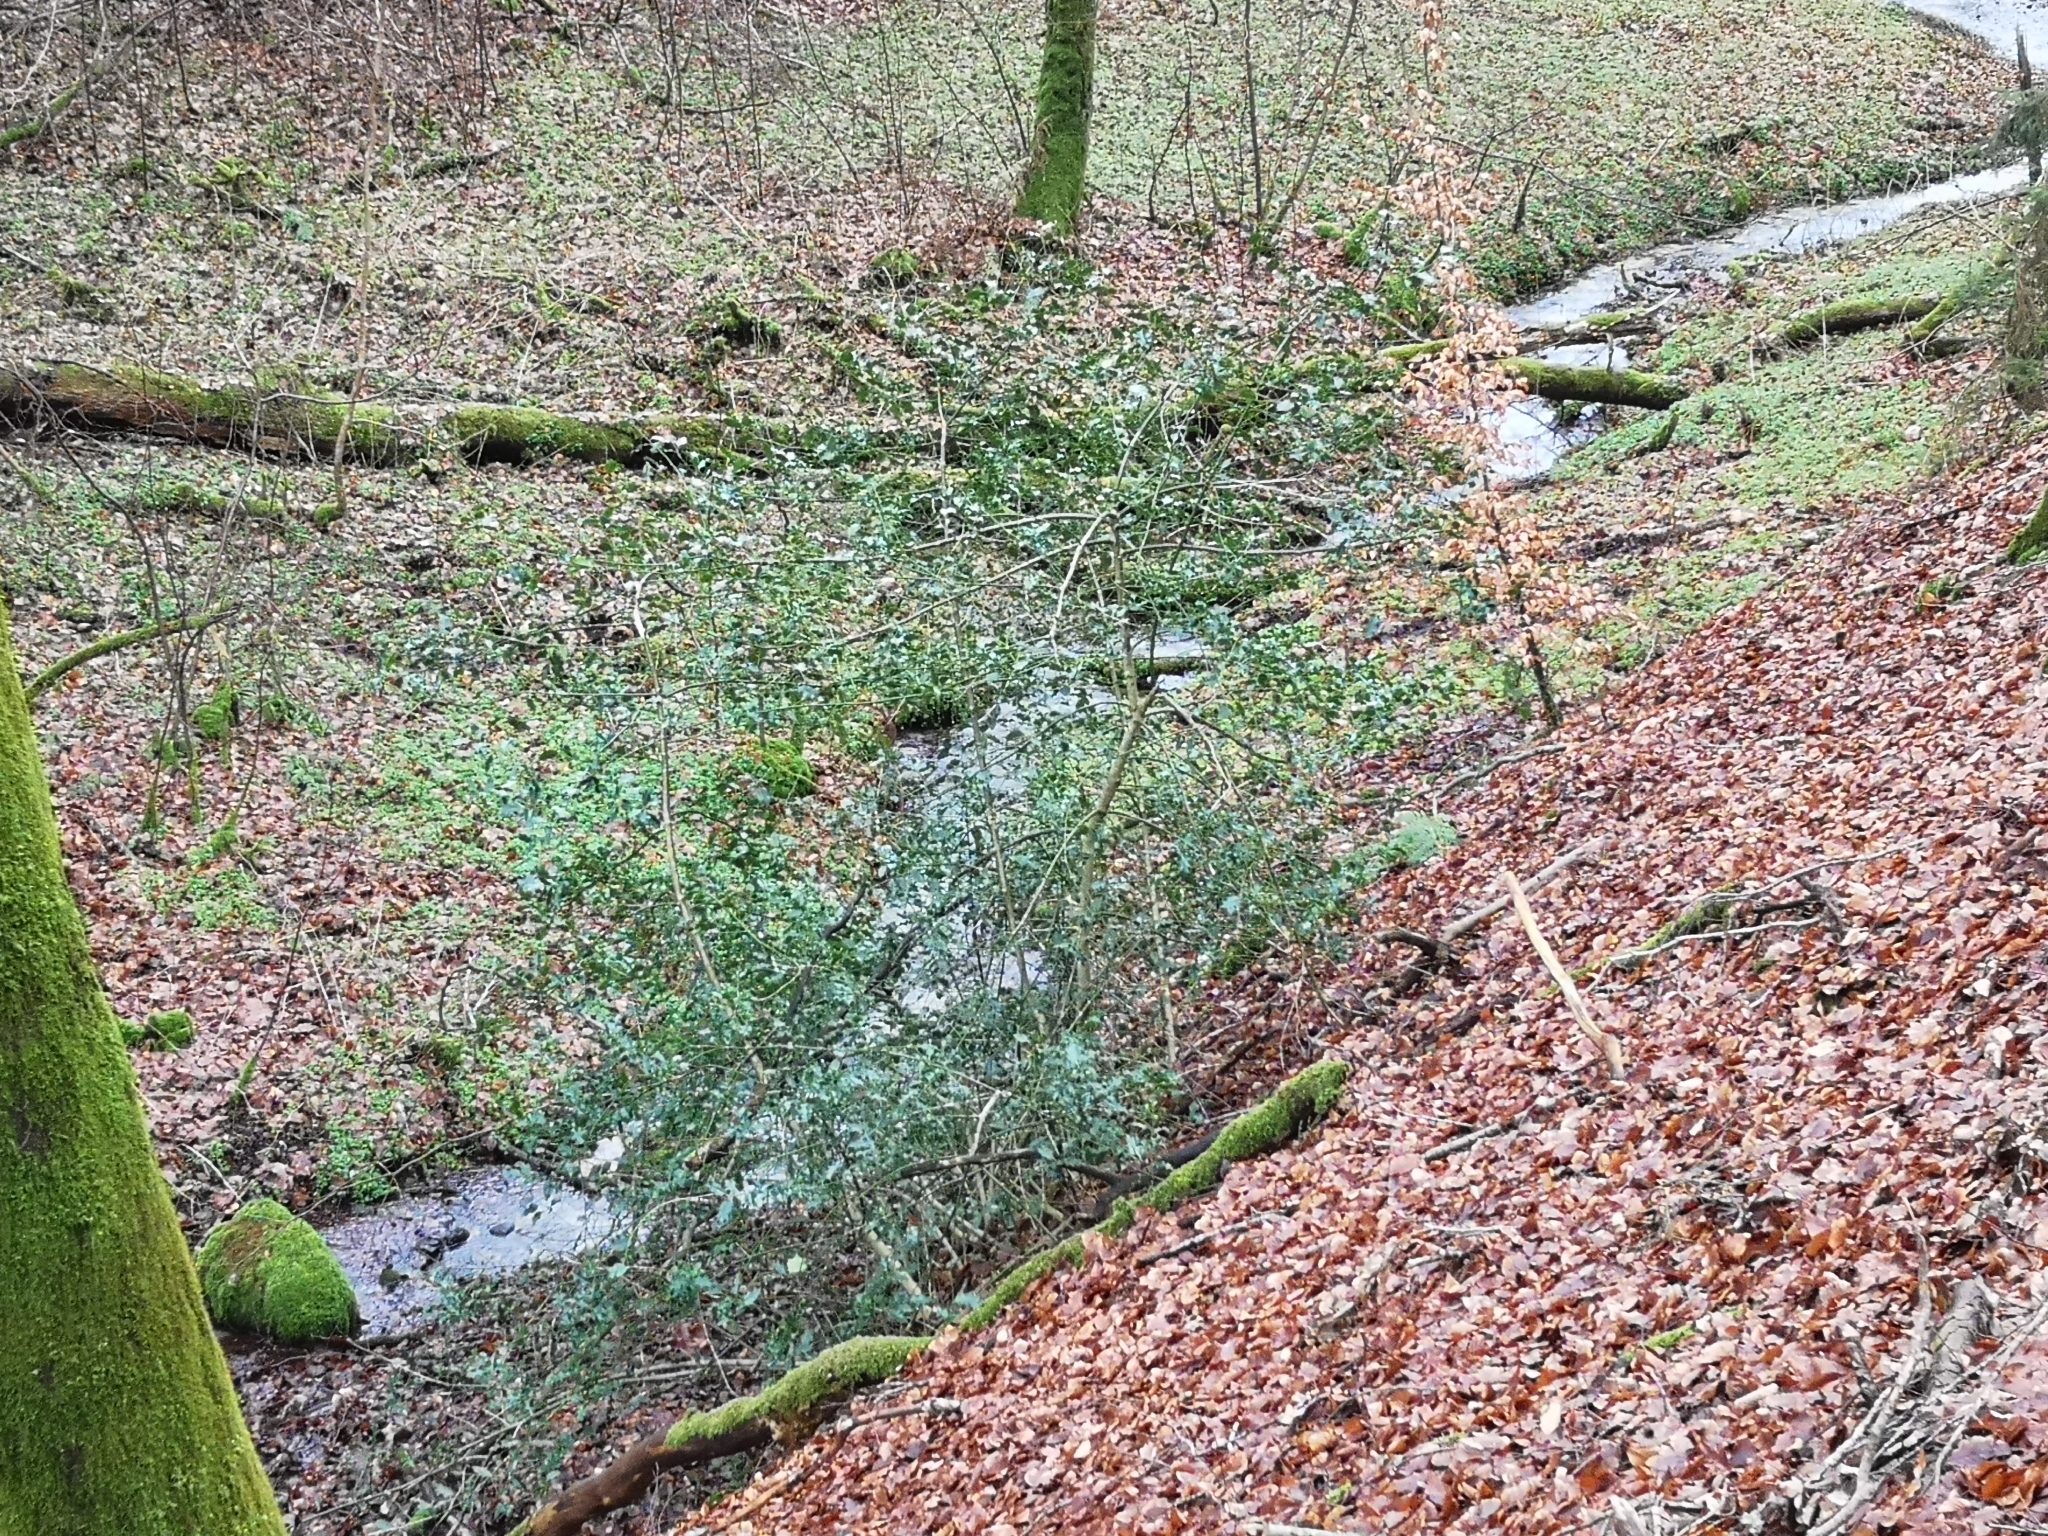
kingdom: Plantae
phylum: Tracheophyta
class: Magnoliopsida
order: Aquifoliales
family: Aquifoliaceae
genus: Ilex
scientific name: Ilex aquifolium
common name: English holly
